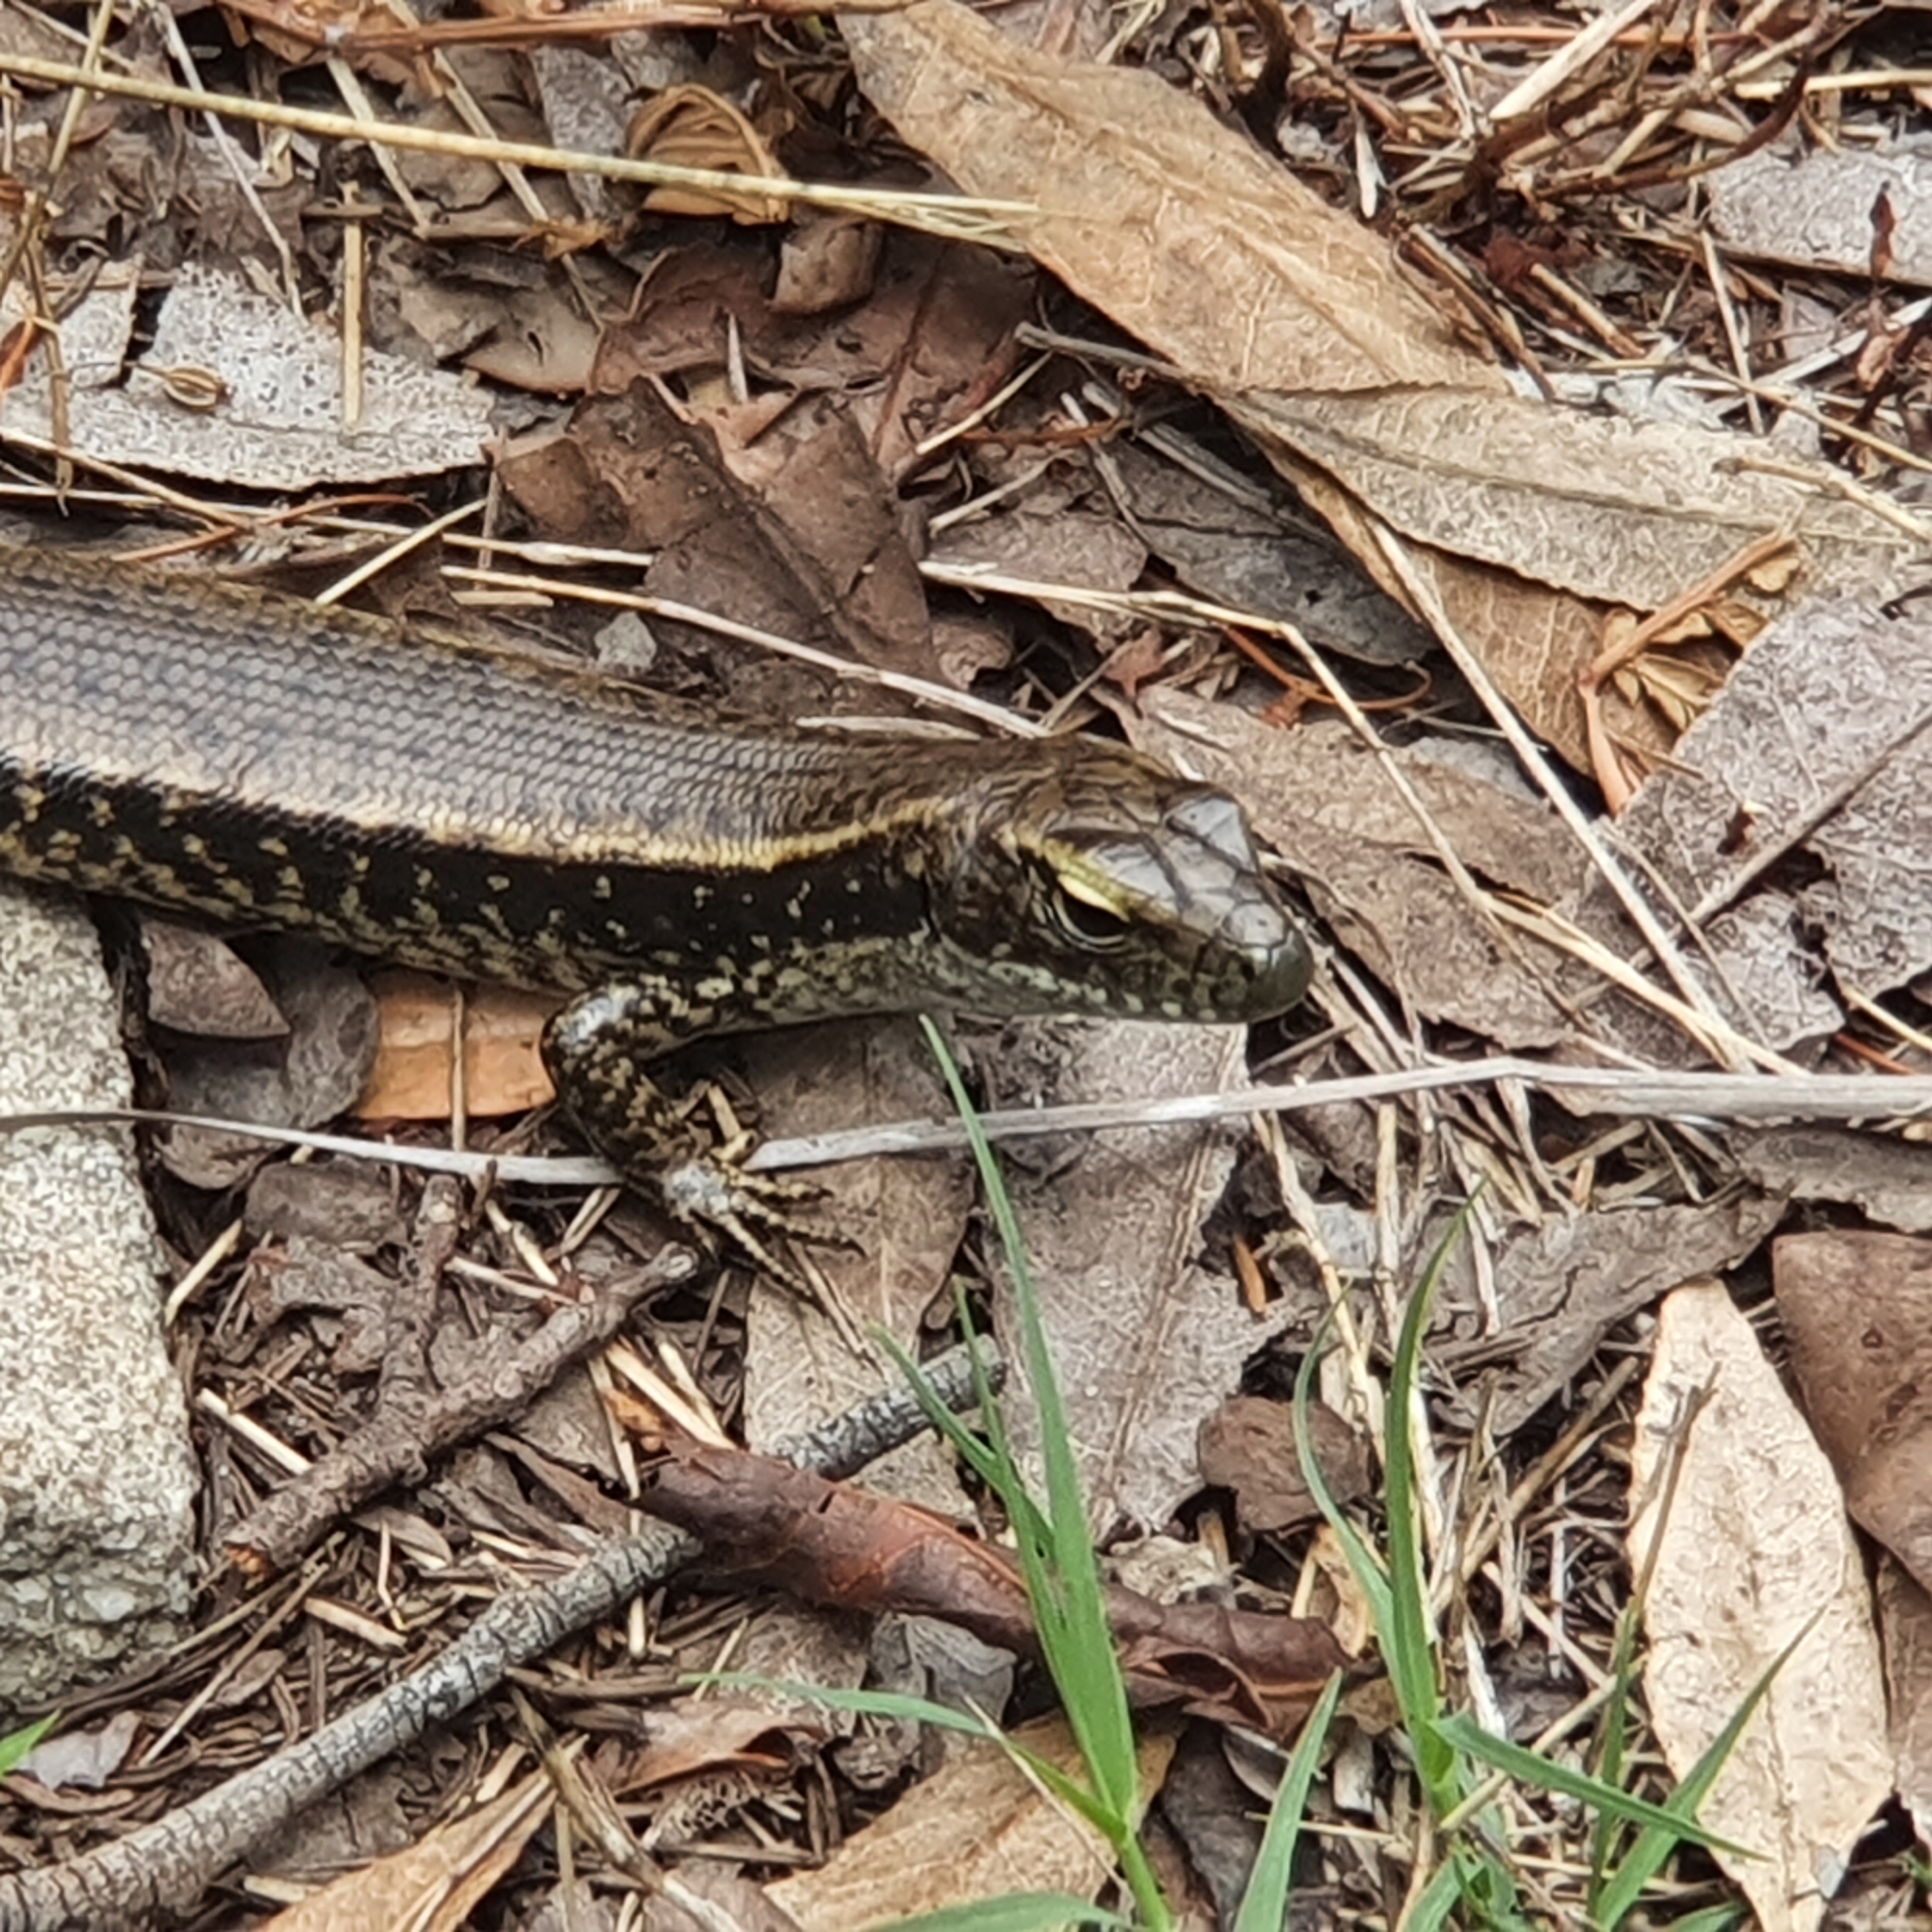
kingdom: Animalia
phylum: Chordata
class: Squamata
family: Scincidae
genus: Eulamprus
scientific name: Eulamprus quoyii
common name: Eastern water skink
